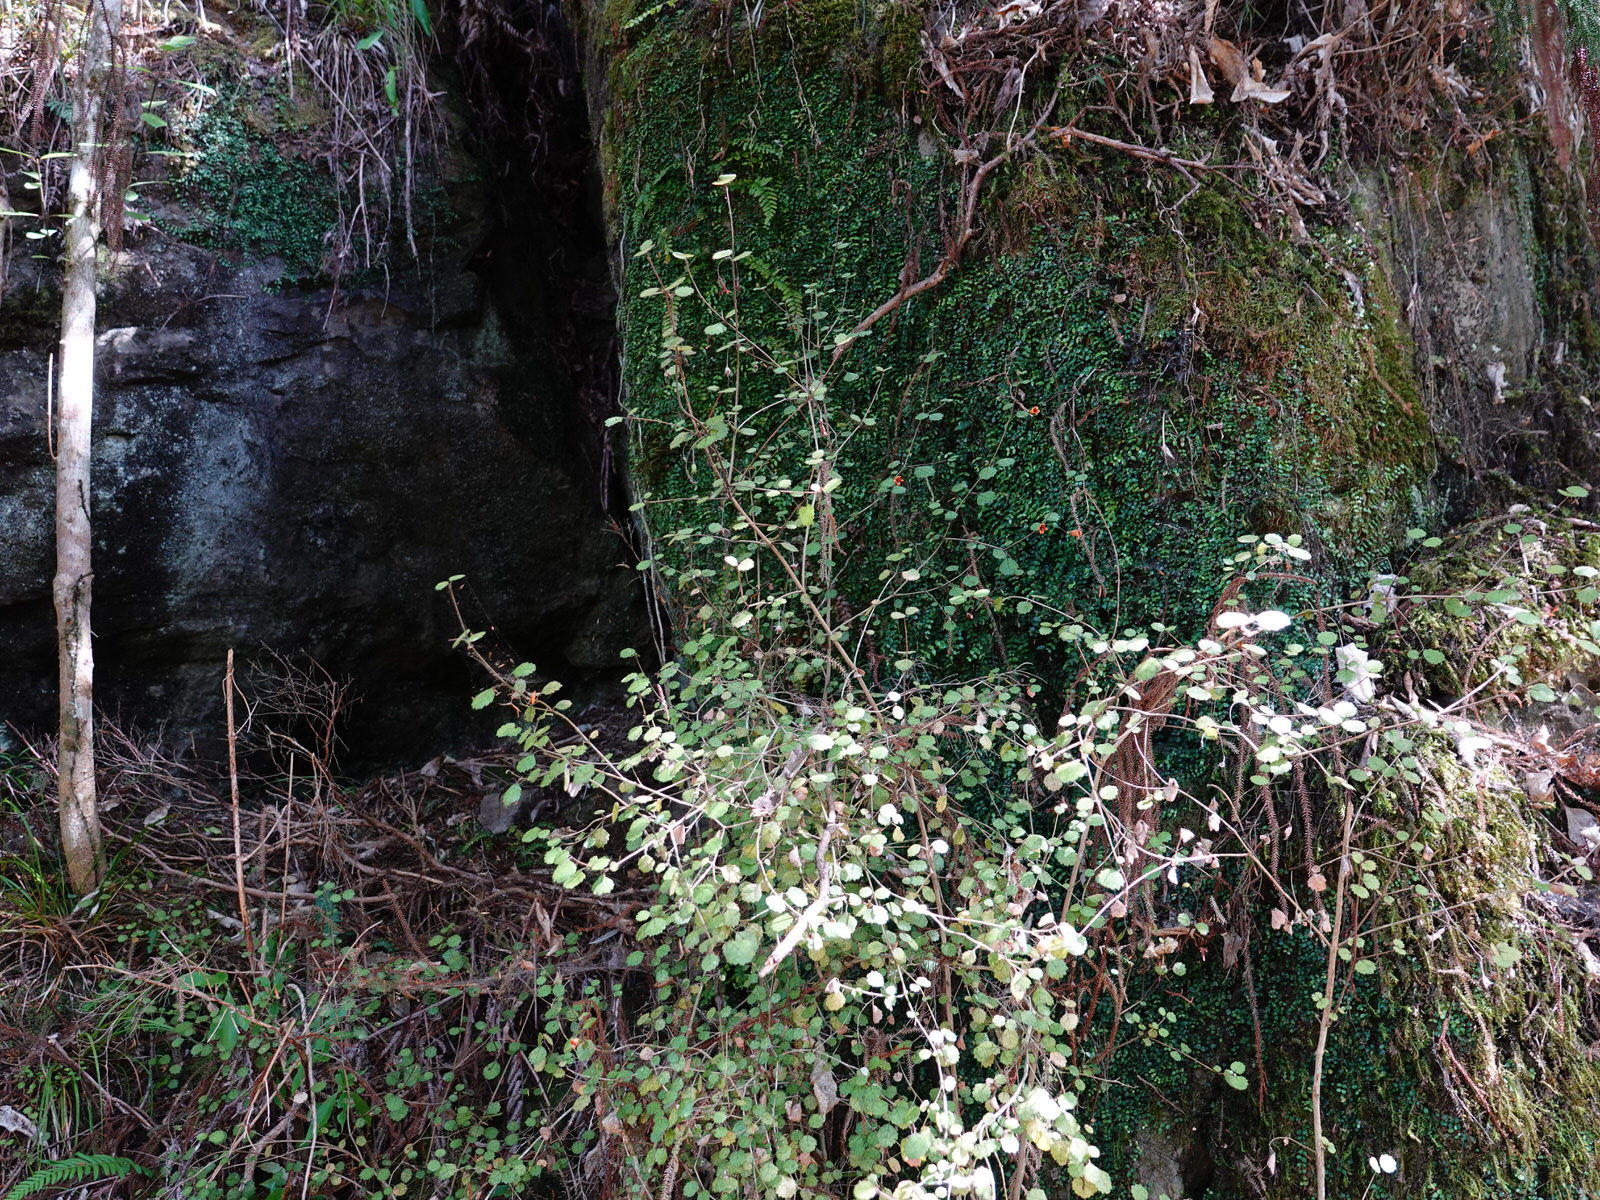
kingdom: Plantae
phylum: Tracheophyta
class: Magnoliopsida
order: Lamiales
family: Gesneriaceae
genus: Rhabdothamnus
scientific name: Rhabdothamnus solandri
